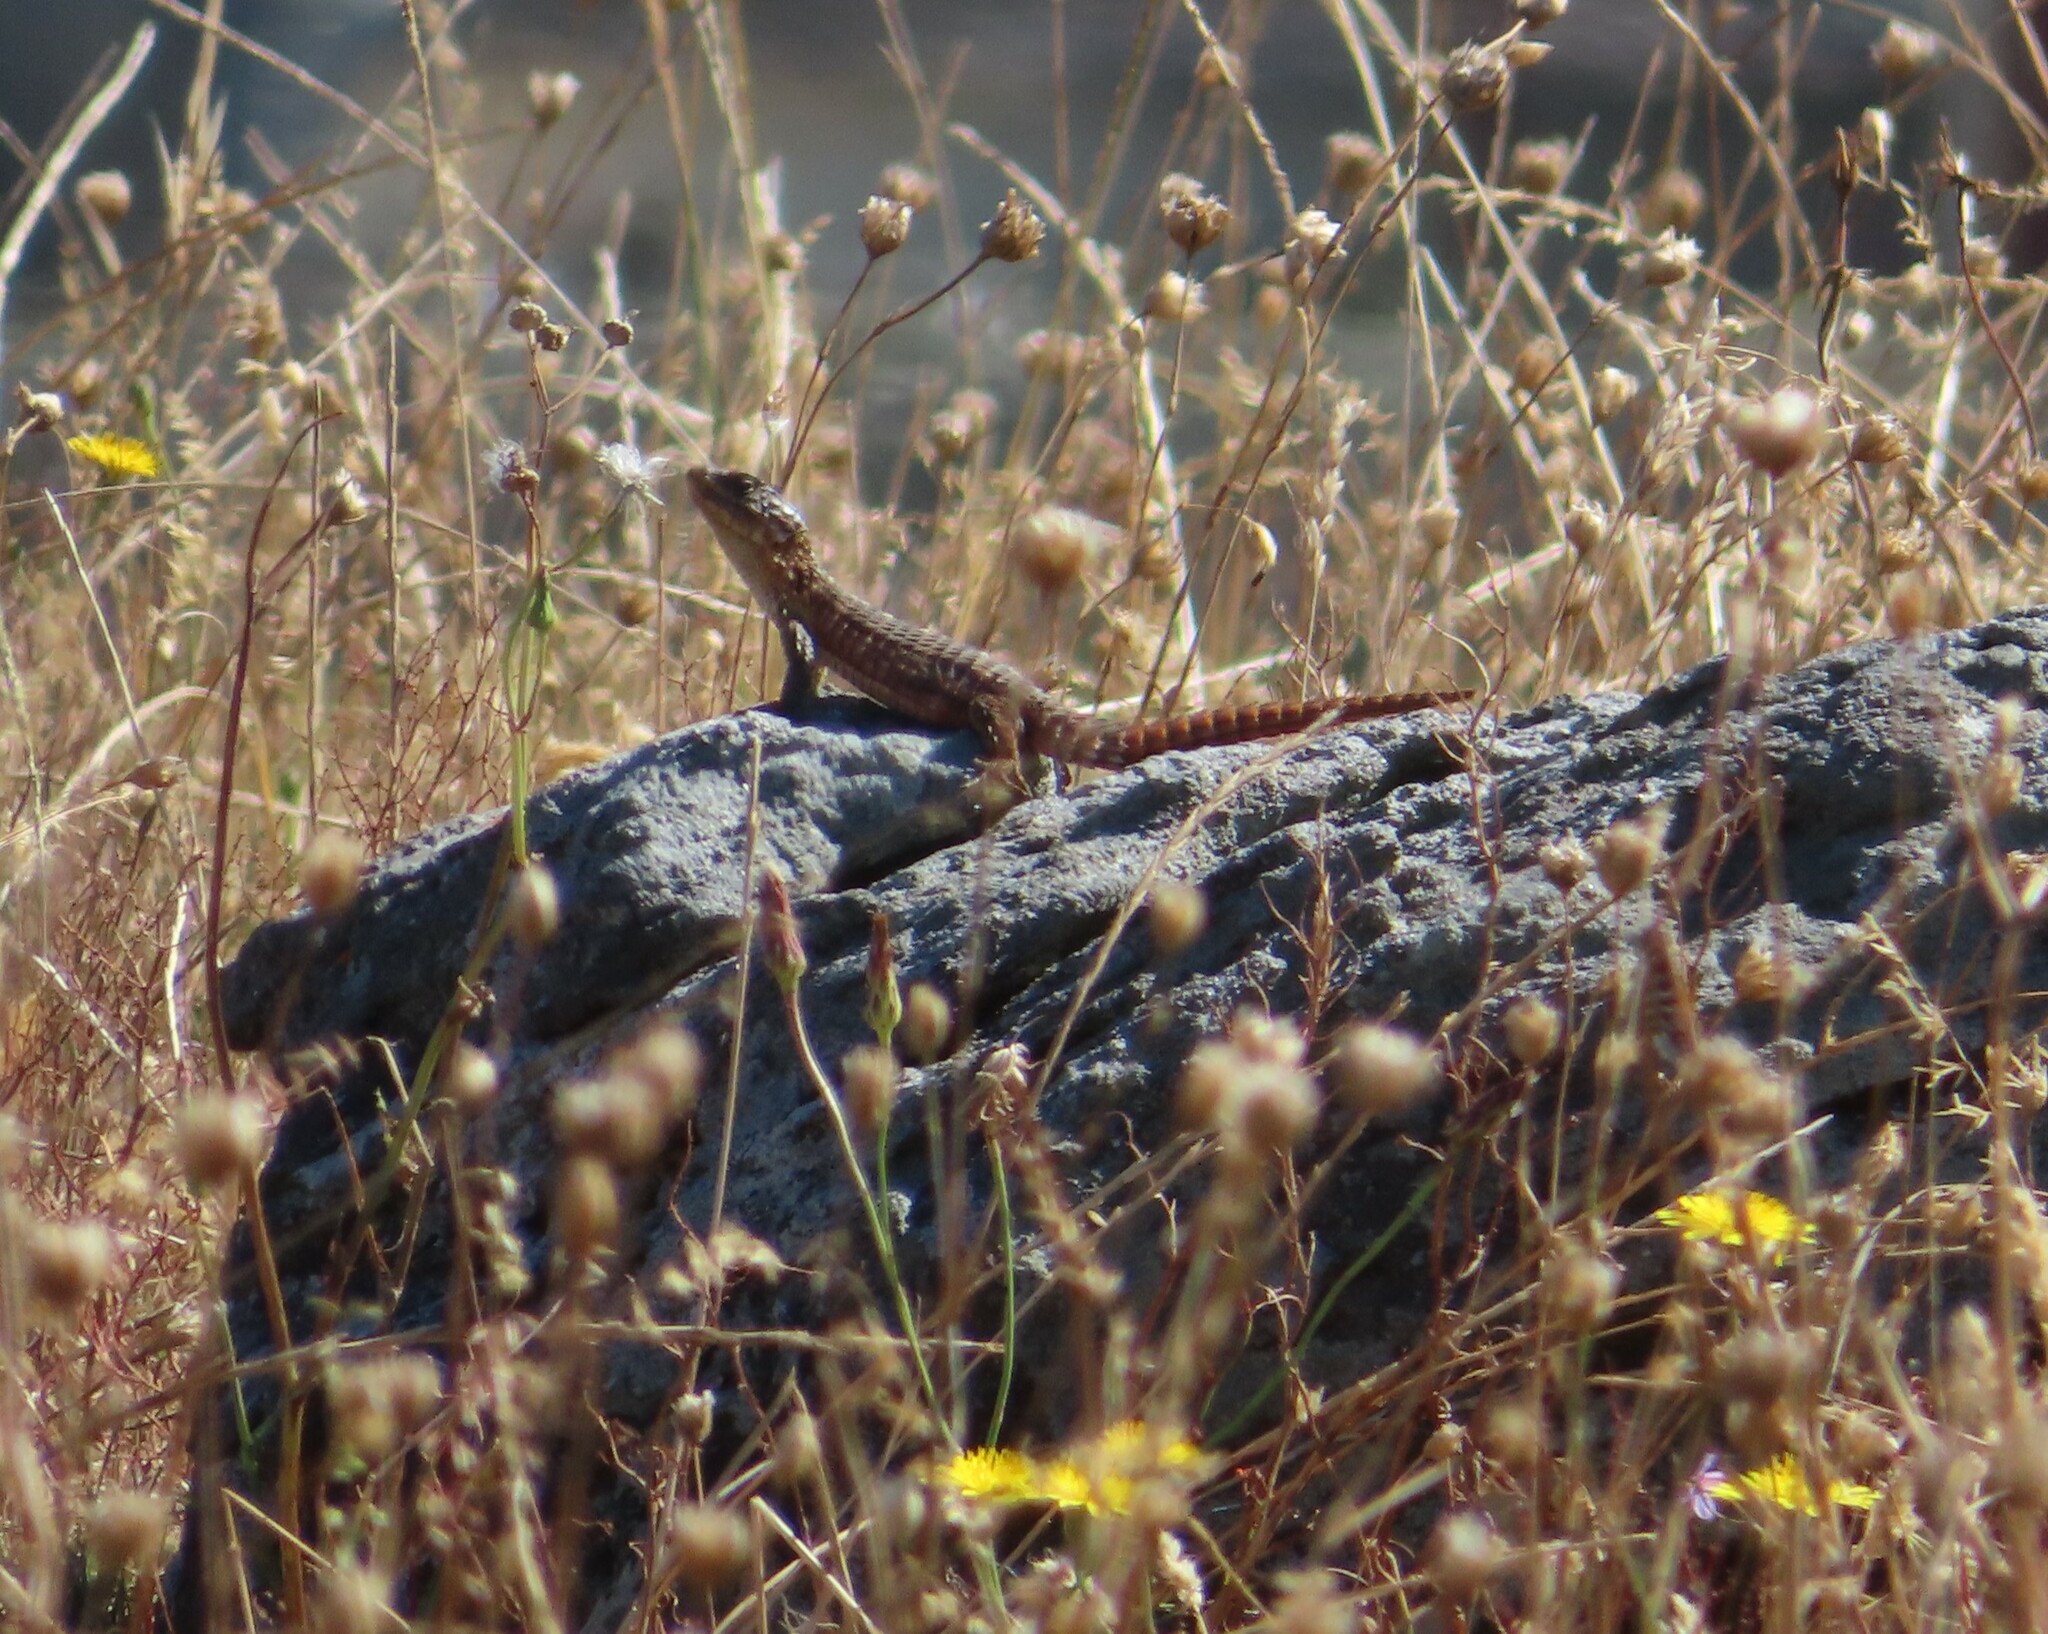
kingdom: Animalia
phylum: Chordata
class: Squamata
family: Cordylidae
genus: Cordylus
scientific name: Cordylus cordylus
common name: Cape girdled lizard
